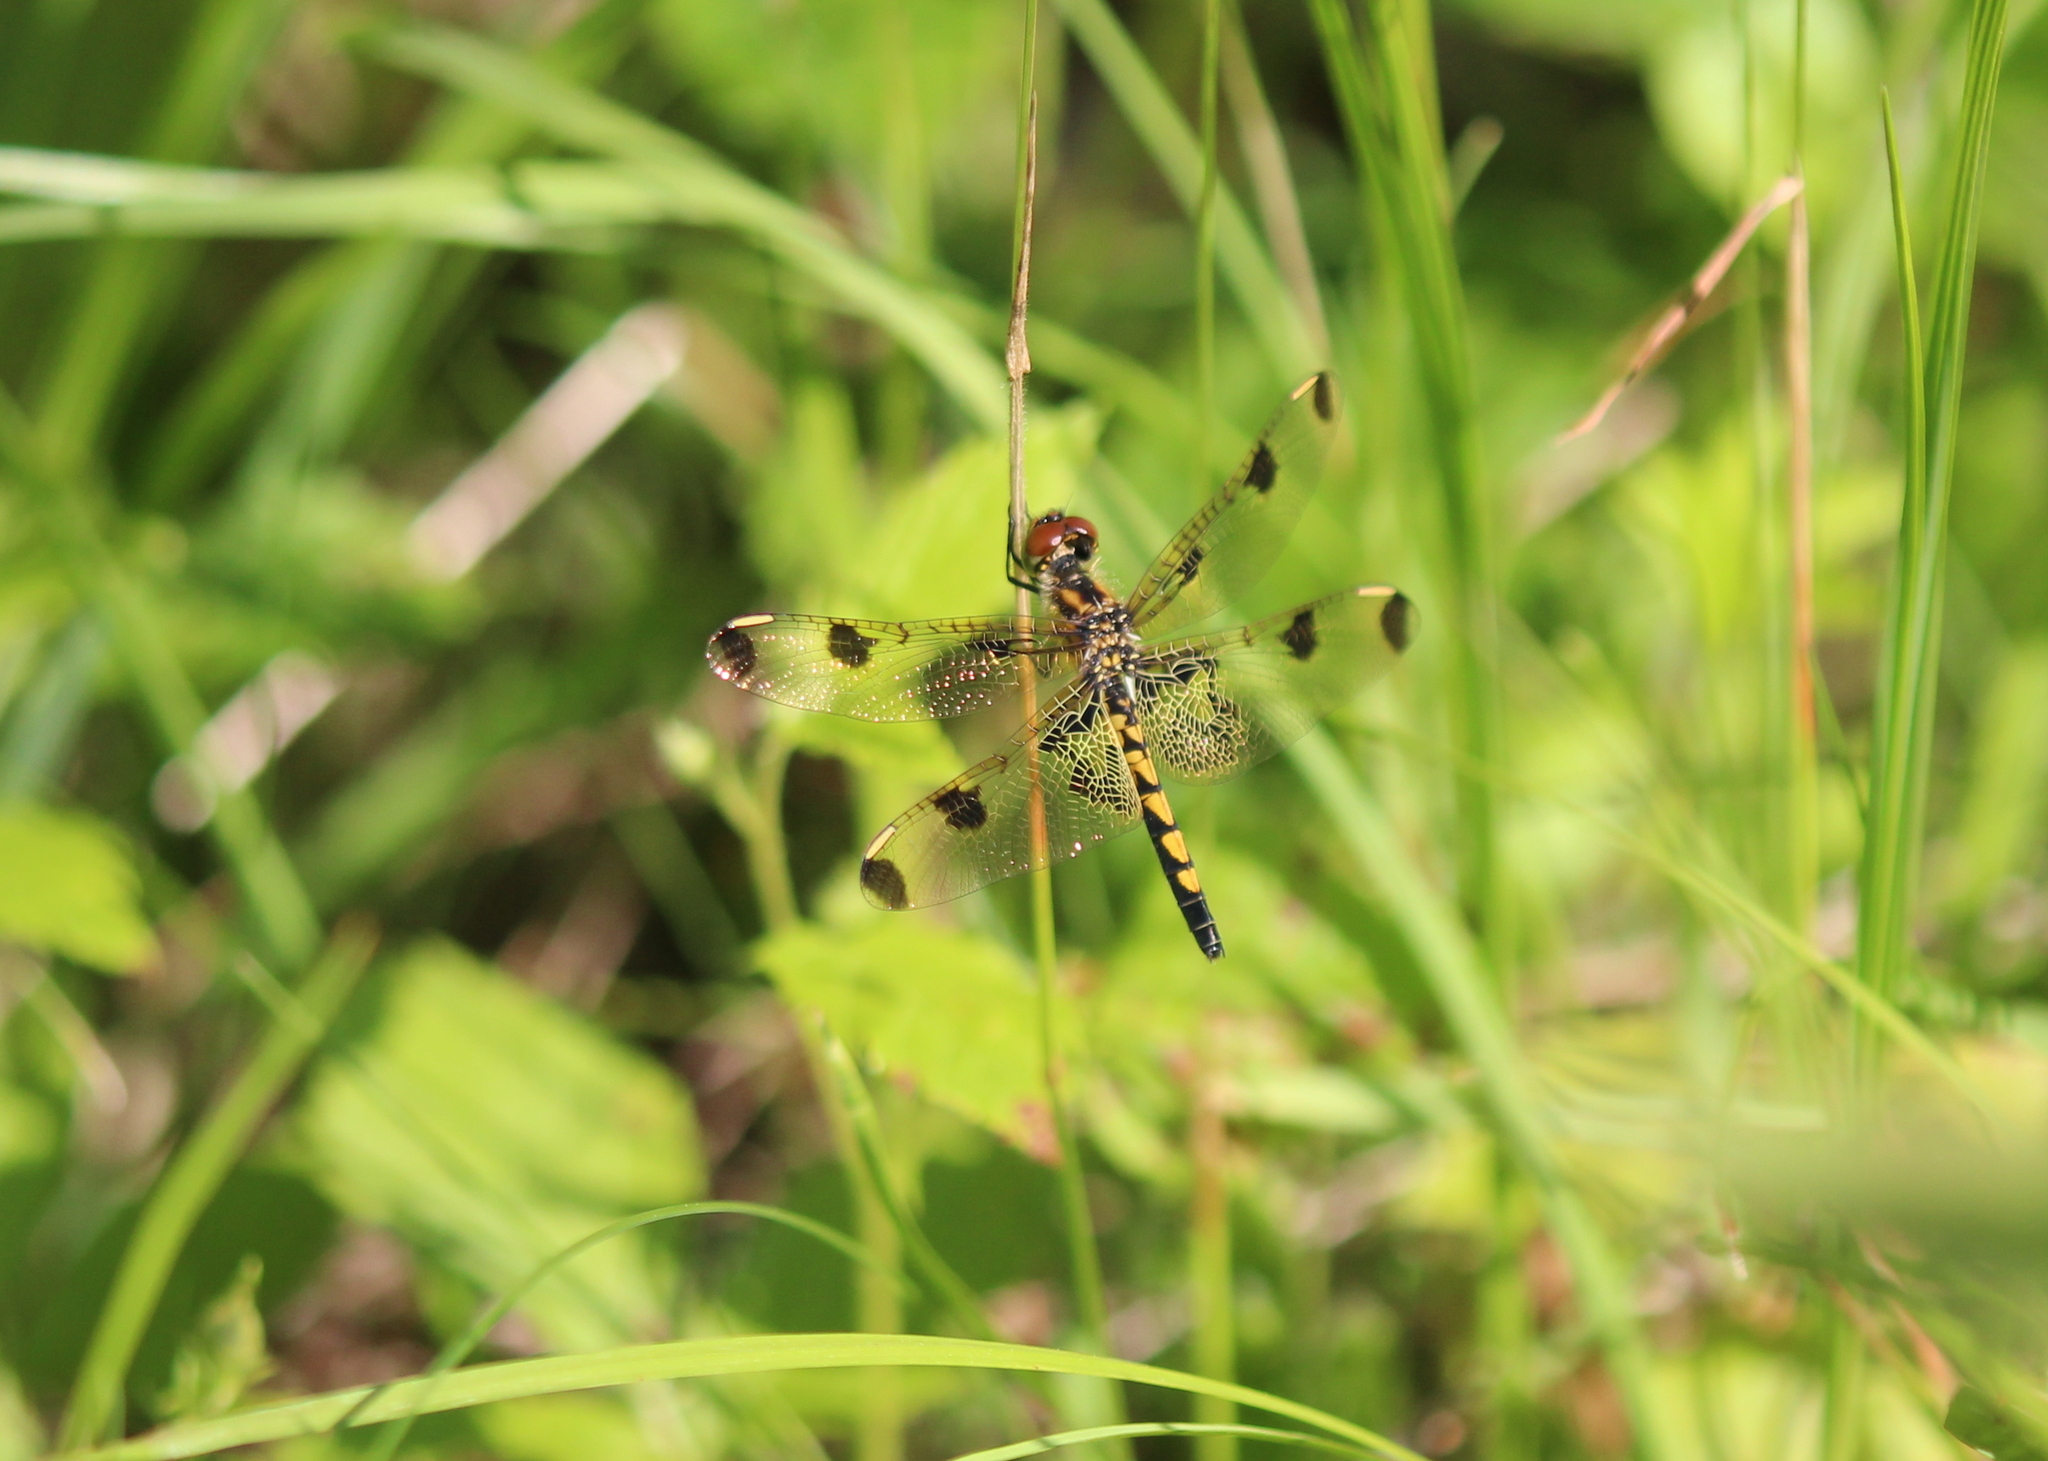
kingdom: Animalia
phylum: Arthropoda
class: Insecta
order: Odonata
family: Libellulidae
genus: Celithemis
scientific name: Celithemis elisa
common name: Calico pennant
